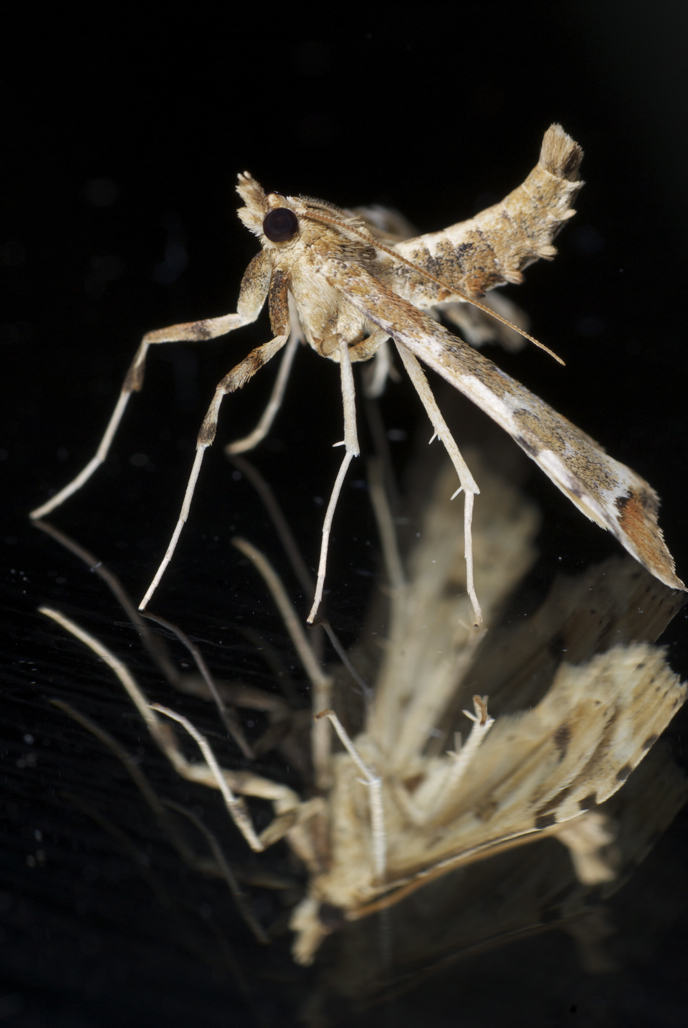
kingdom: Animalia
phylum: Arthropoda
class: Insecta
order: Lepidoptera
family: Crambidae
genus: Sceliodes
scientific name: Sceliodes cordalis
